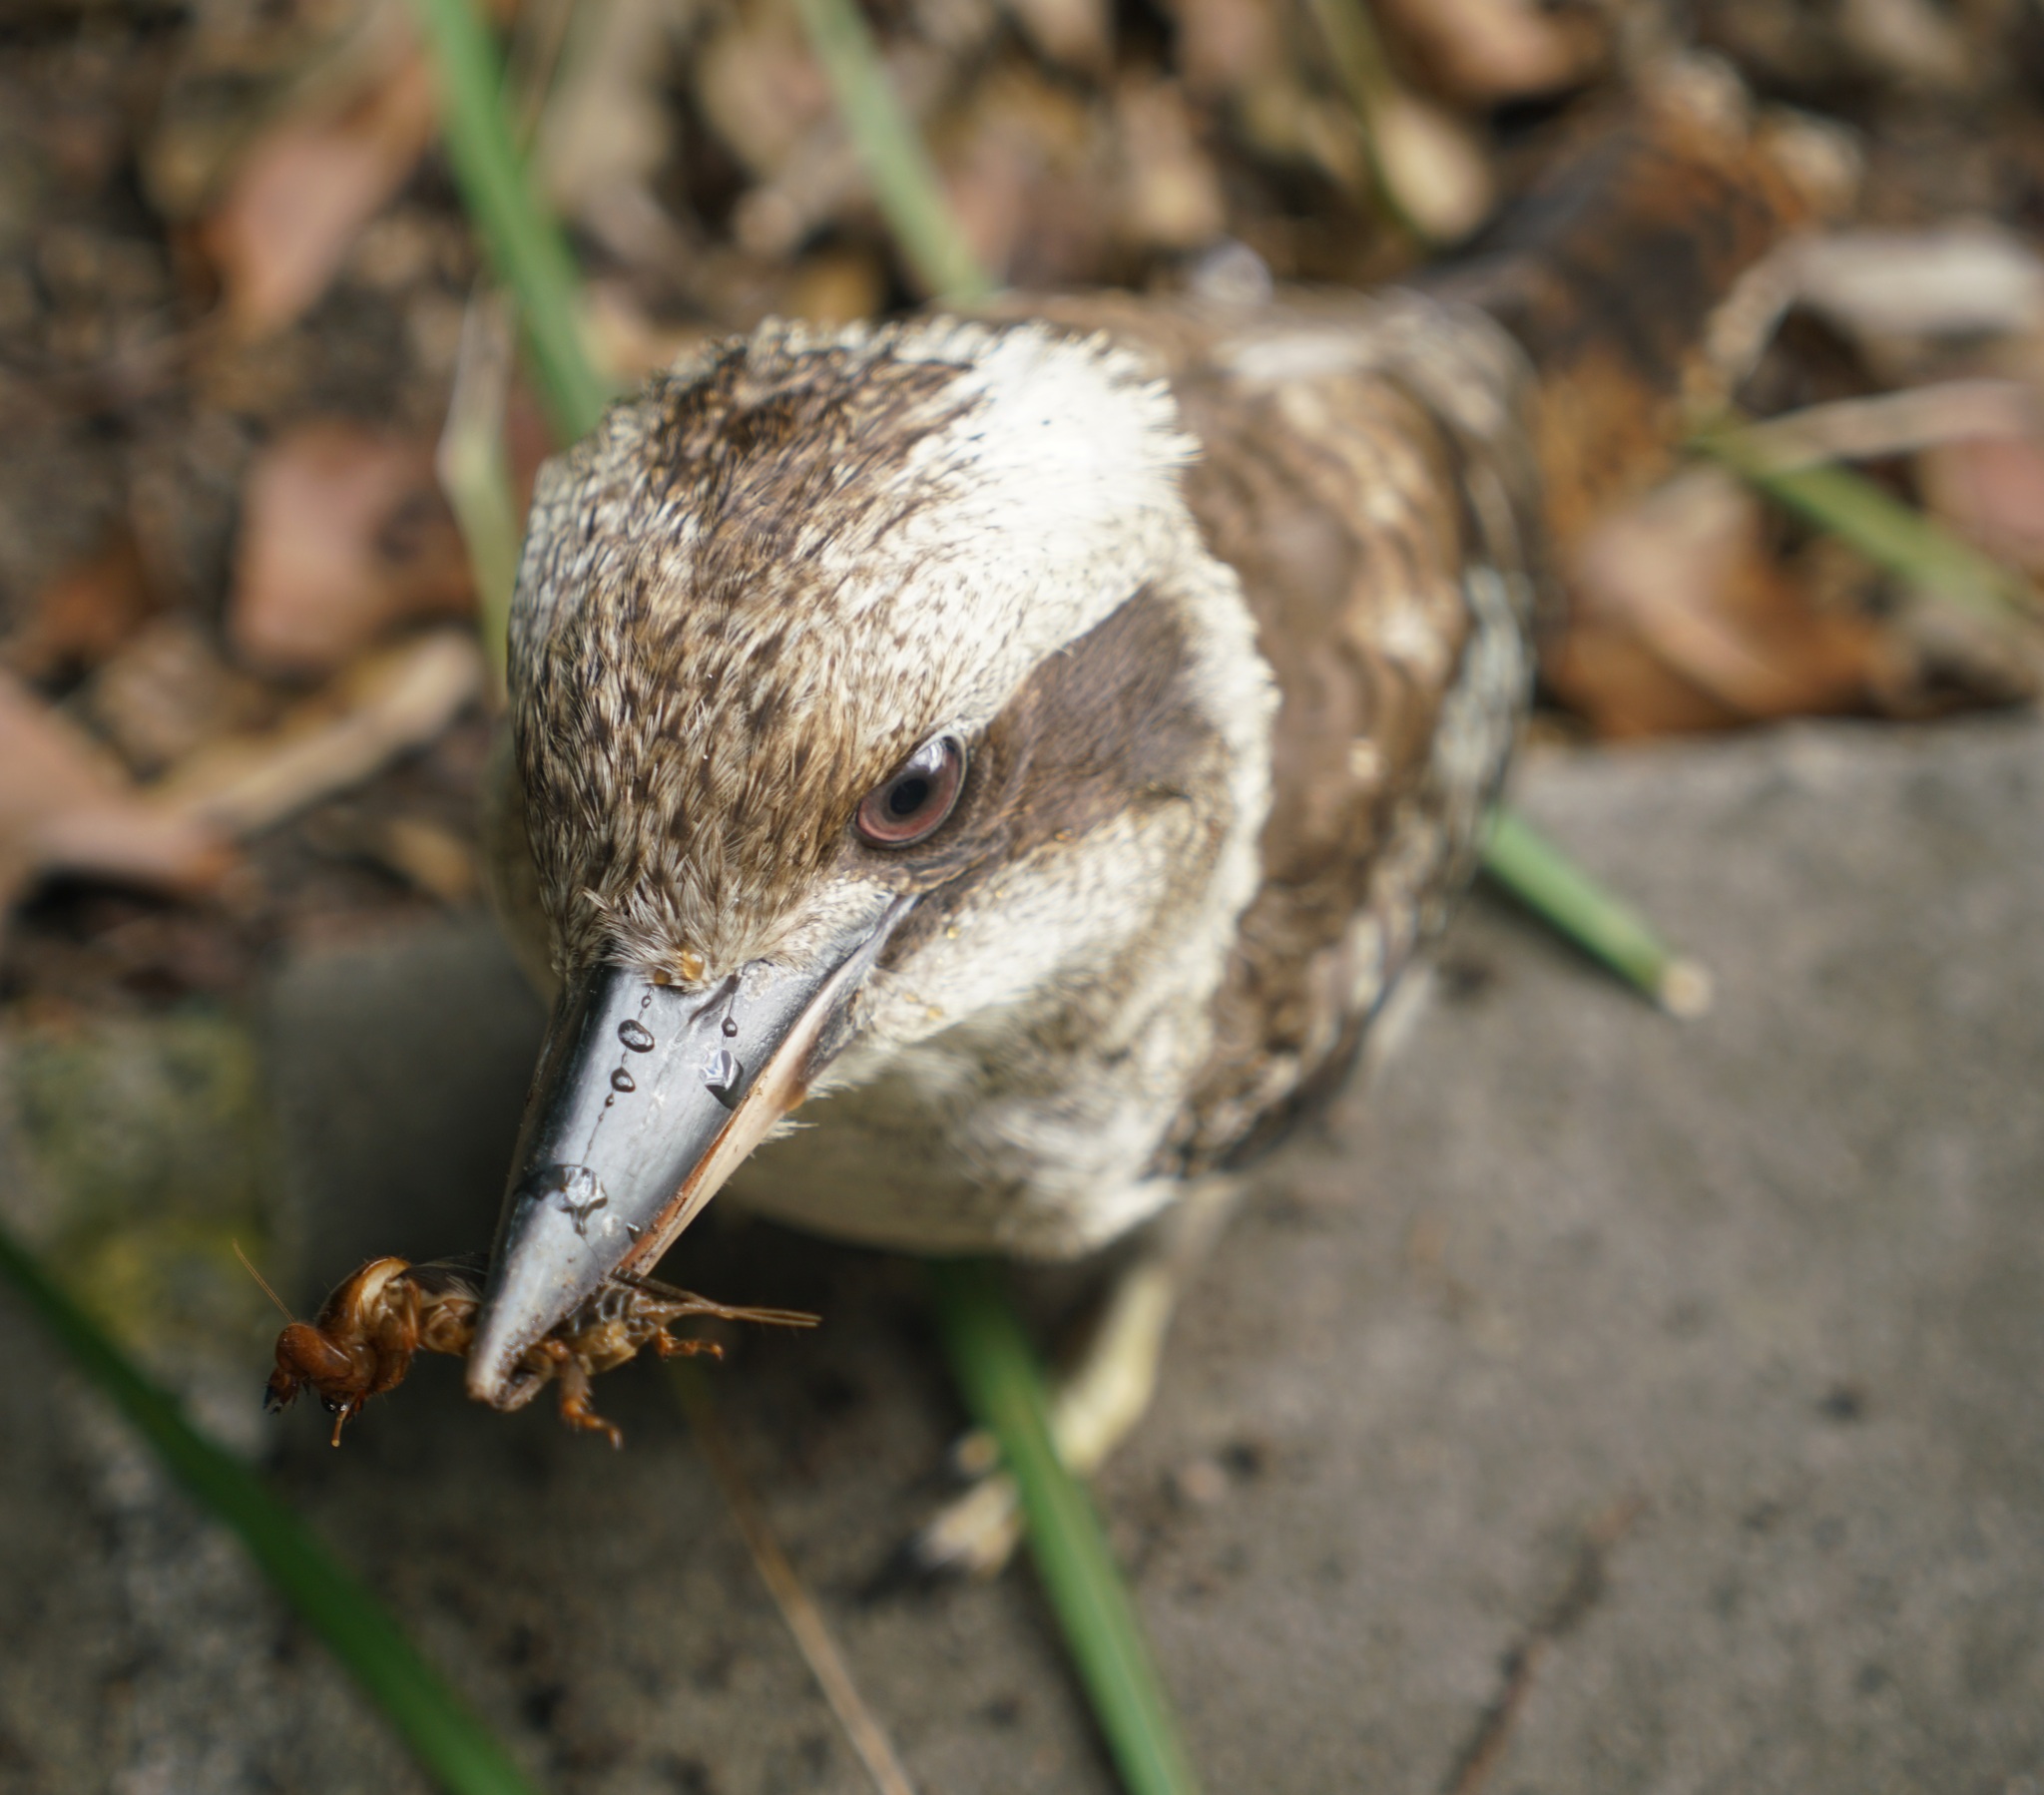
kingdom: Animalia
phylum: Chordata
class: Aves
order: Coraciiformes
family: Alcedinidae
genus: Dacelo
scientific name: Dacelo novaeguineae
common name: Laughing kookaburra
